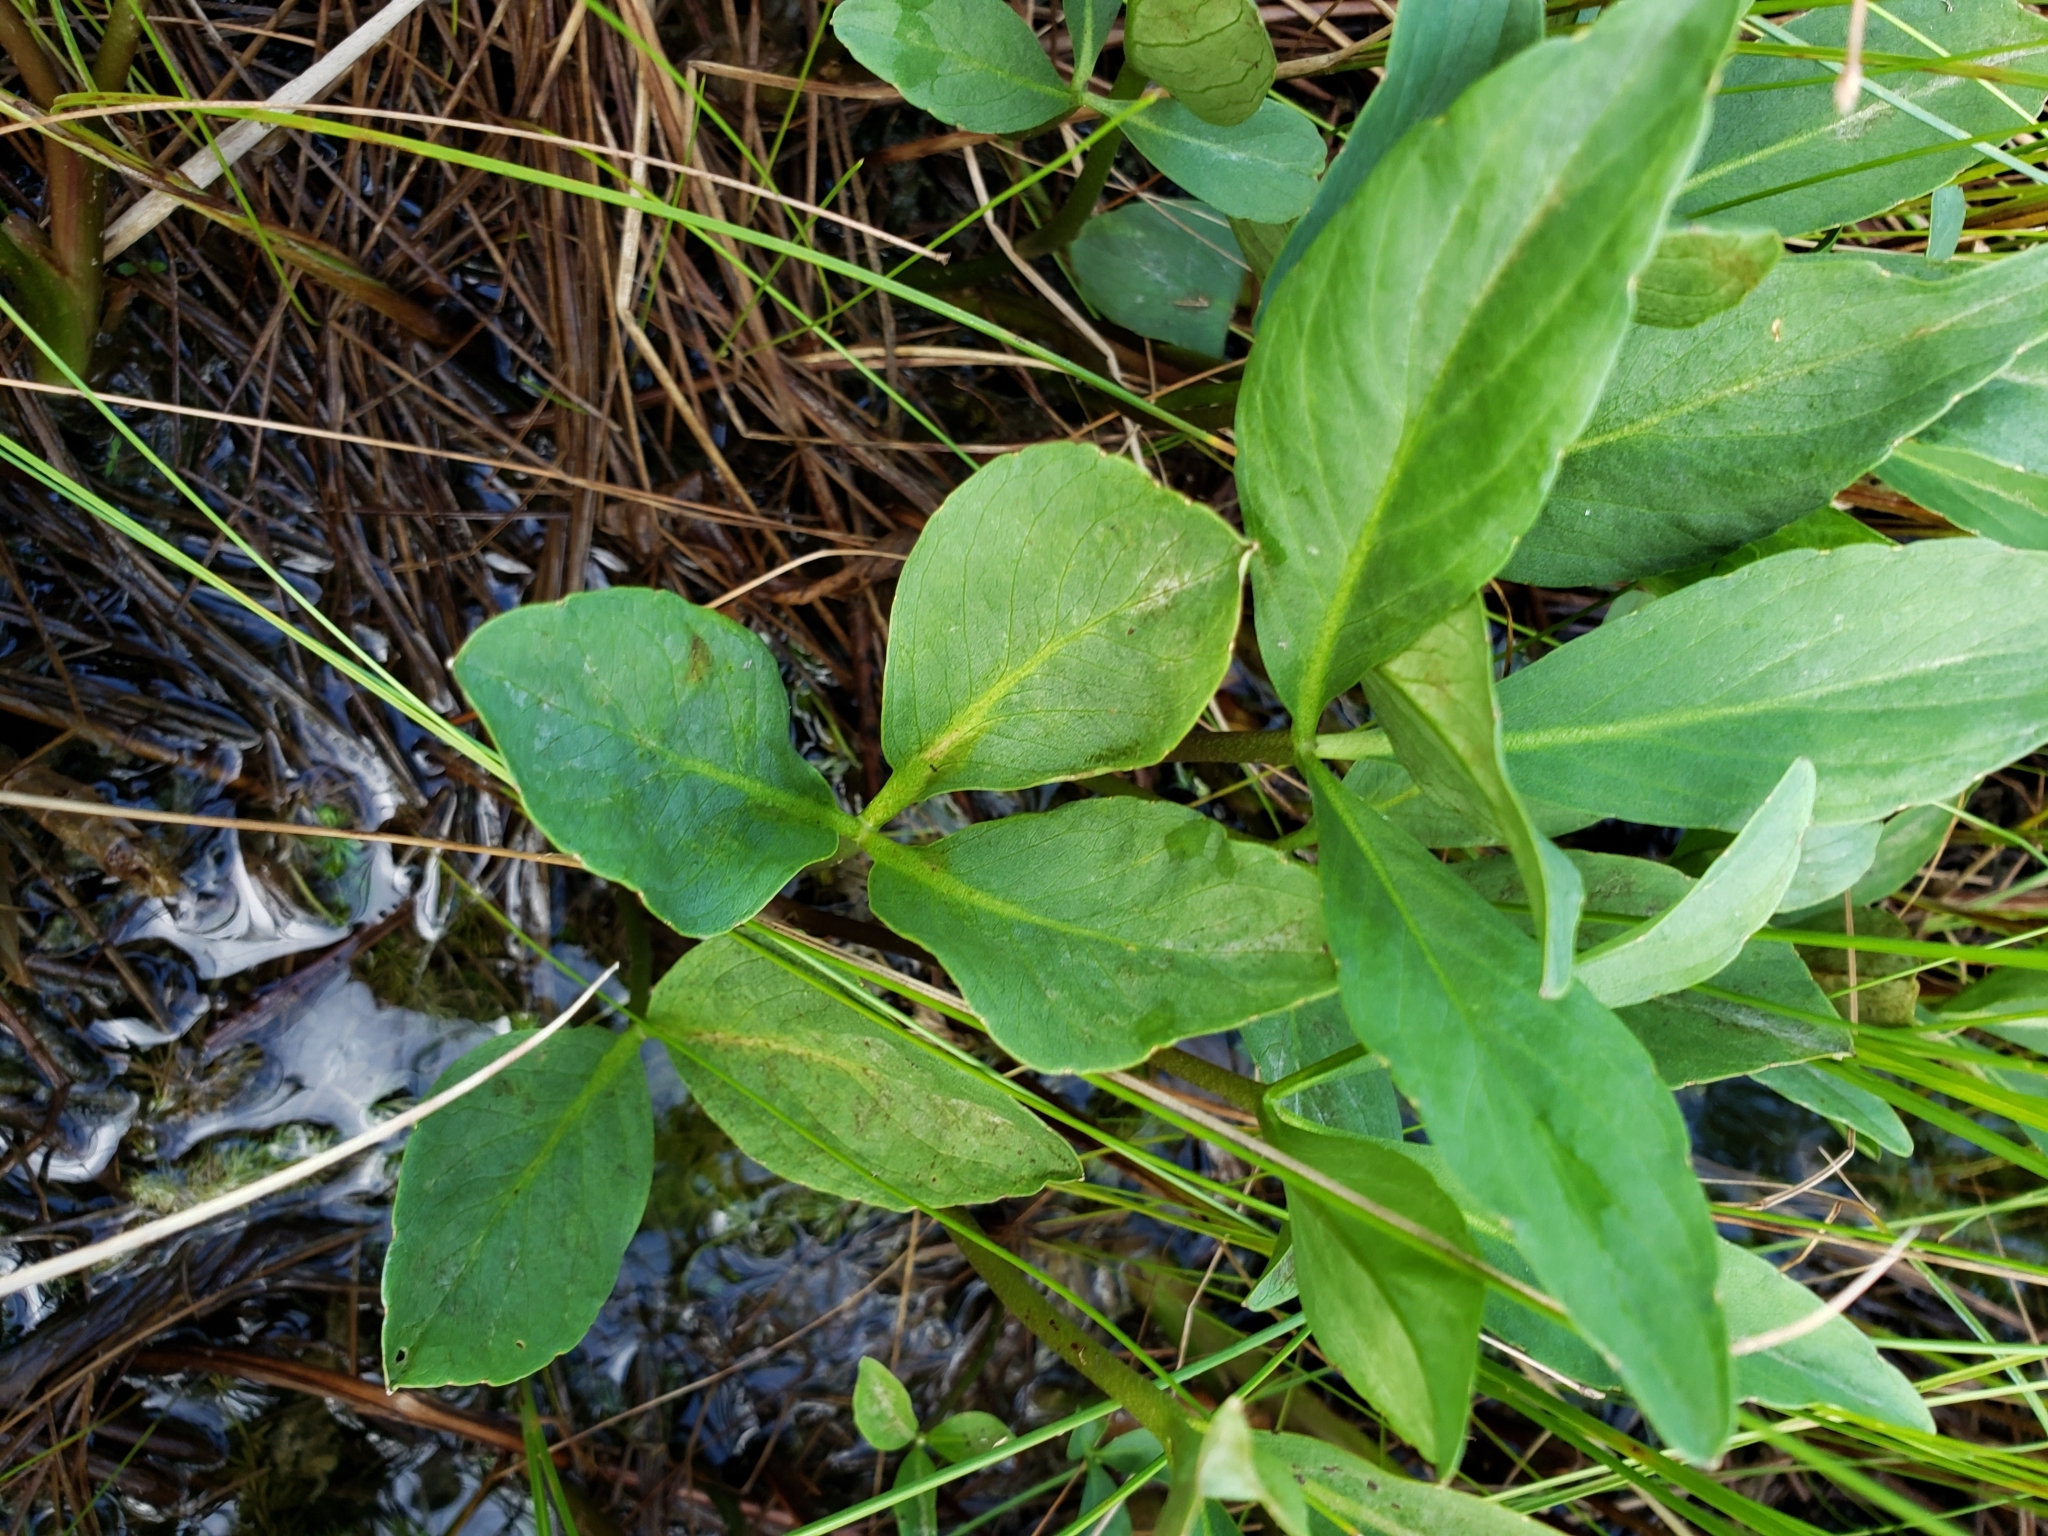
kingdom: Plantae
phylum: Tracheophyta
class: Magnoliopsida
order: Asterales
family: Menyanthaceae
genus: Menyanthes
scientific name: Menyanthes trifoliata
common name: Bogbean
